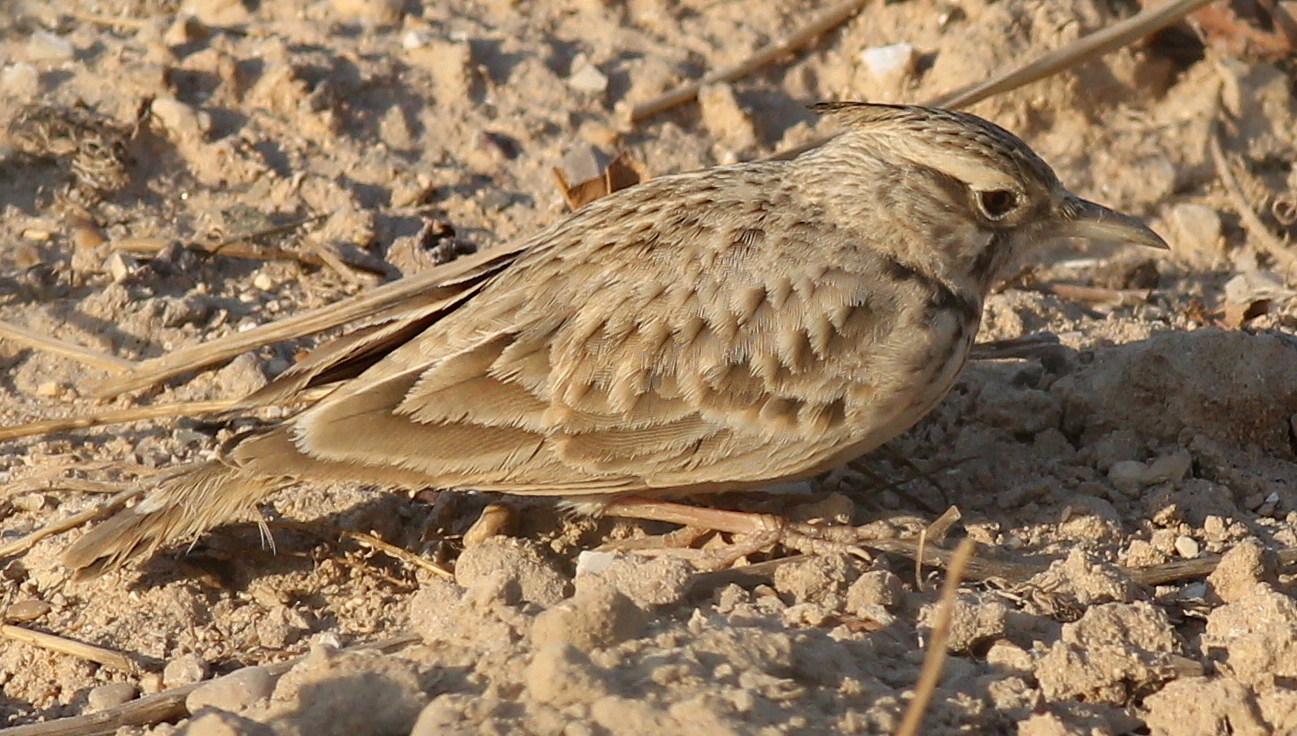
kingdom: Animalia
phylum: Chordata
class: Aves
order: Passeriformes
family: Alaudidae
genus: Galerida
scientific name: Galerida cristata
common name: Crested lark
